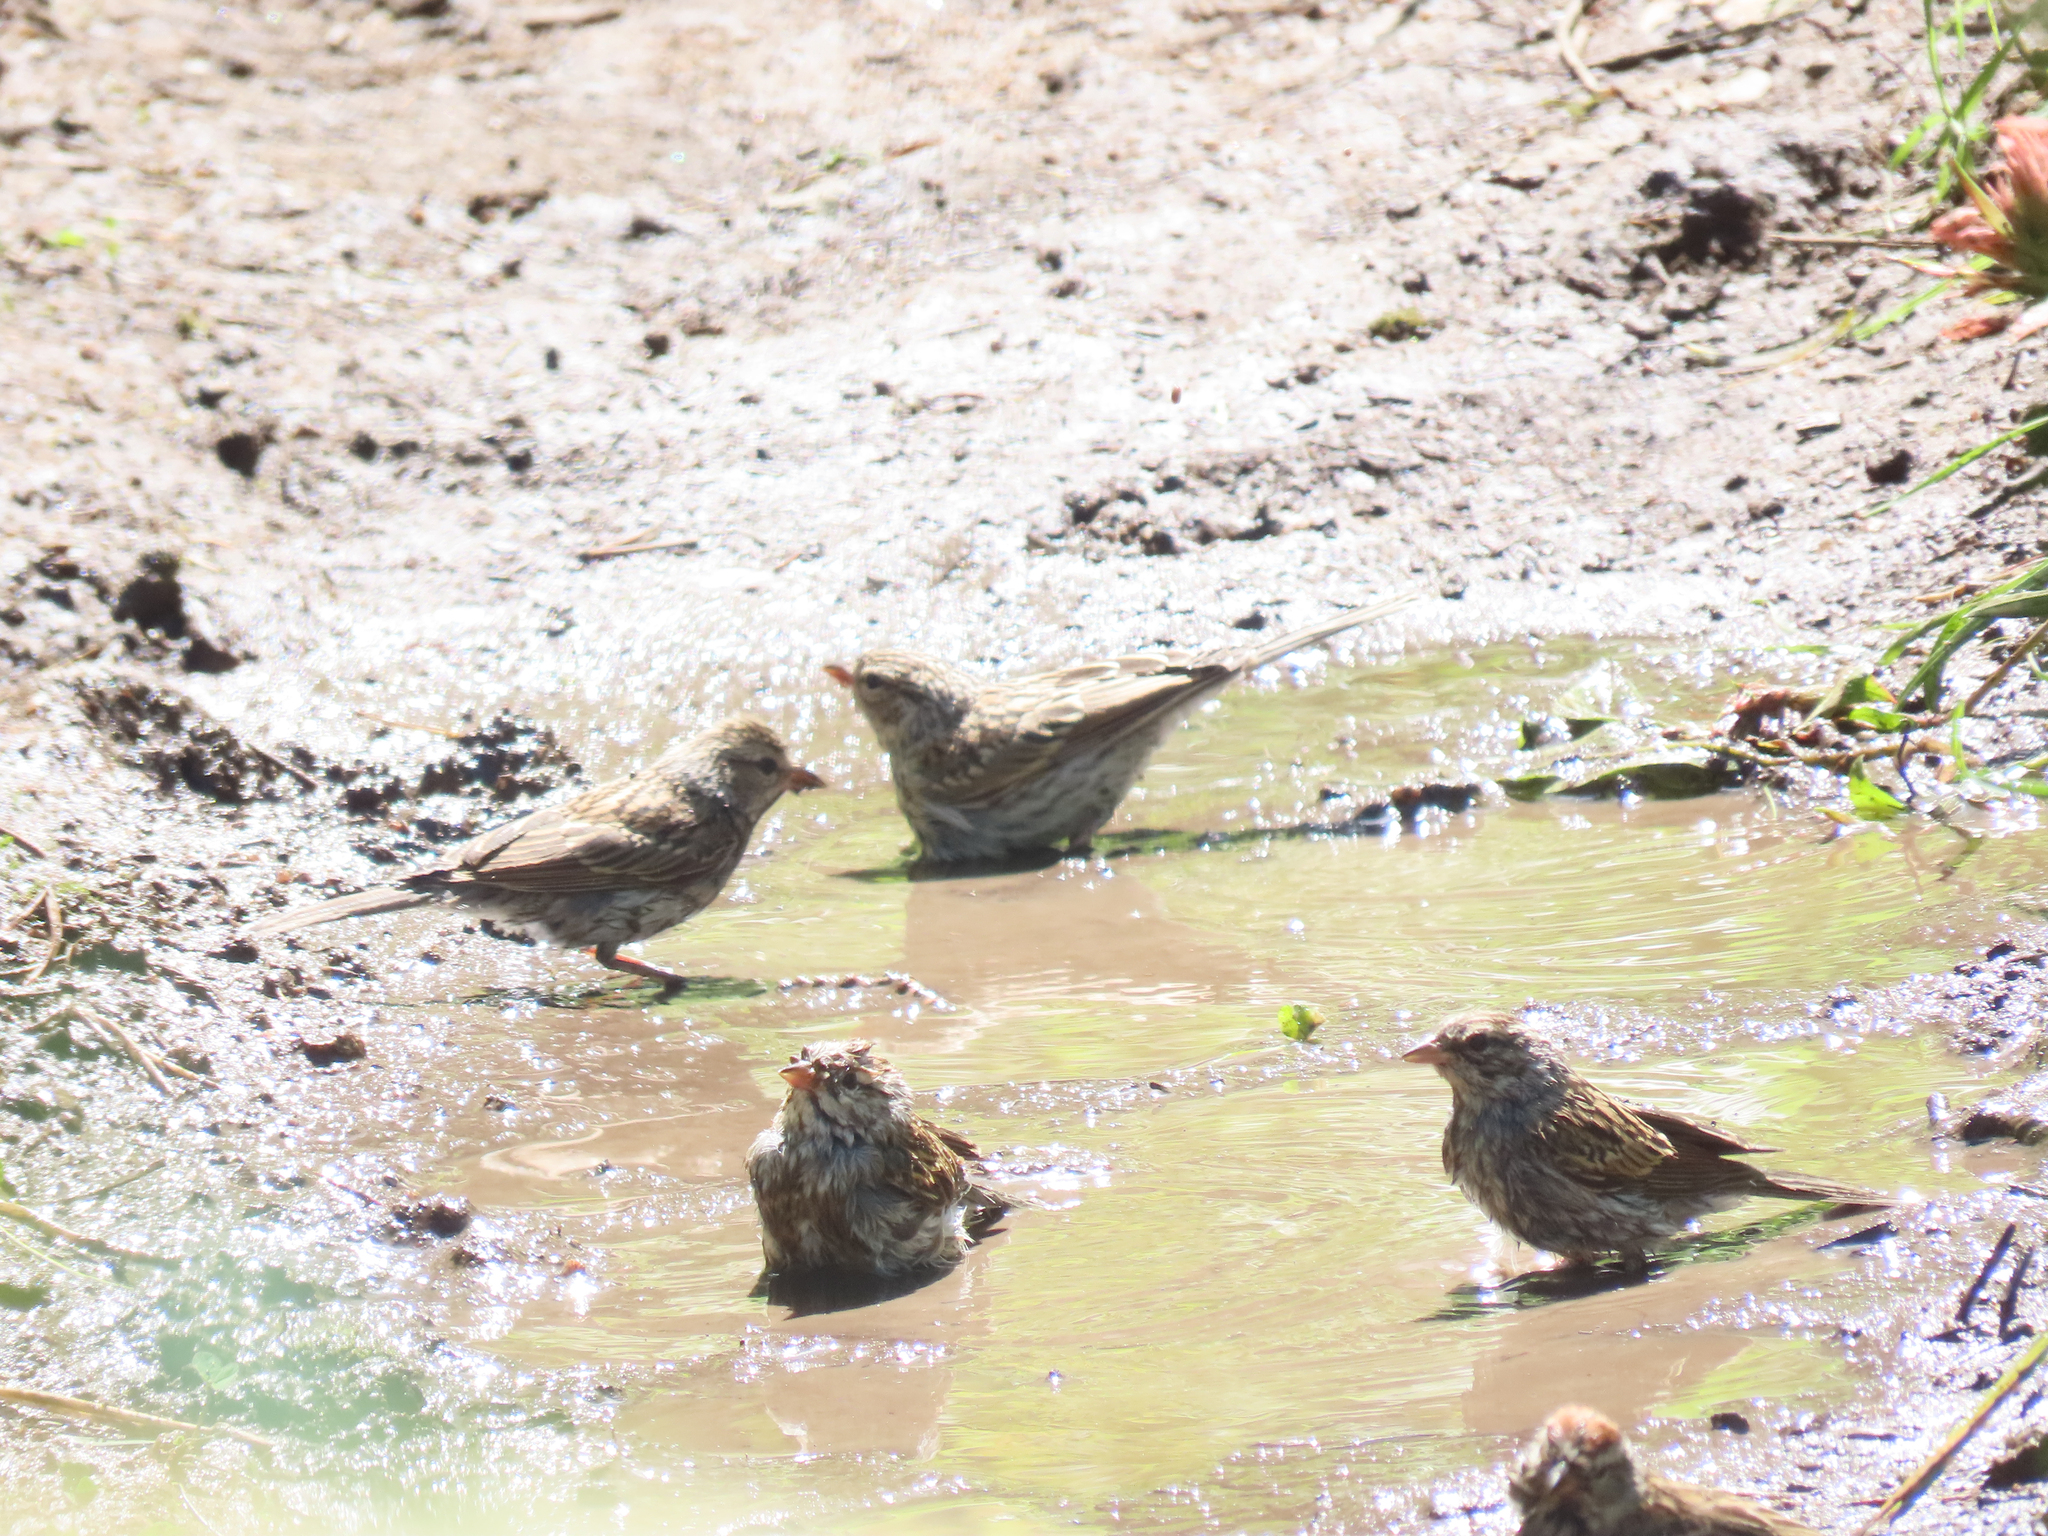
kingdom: Animalia
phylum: Chordata
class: Aves
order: Passeriformes
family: Passerellidae
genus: Spizella
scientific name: Spizella passerina
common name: Chipping sparrow
